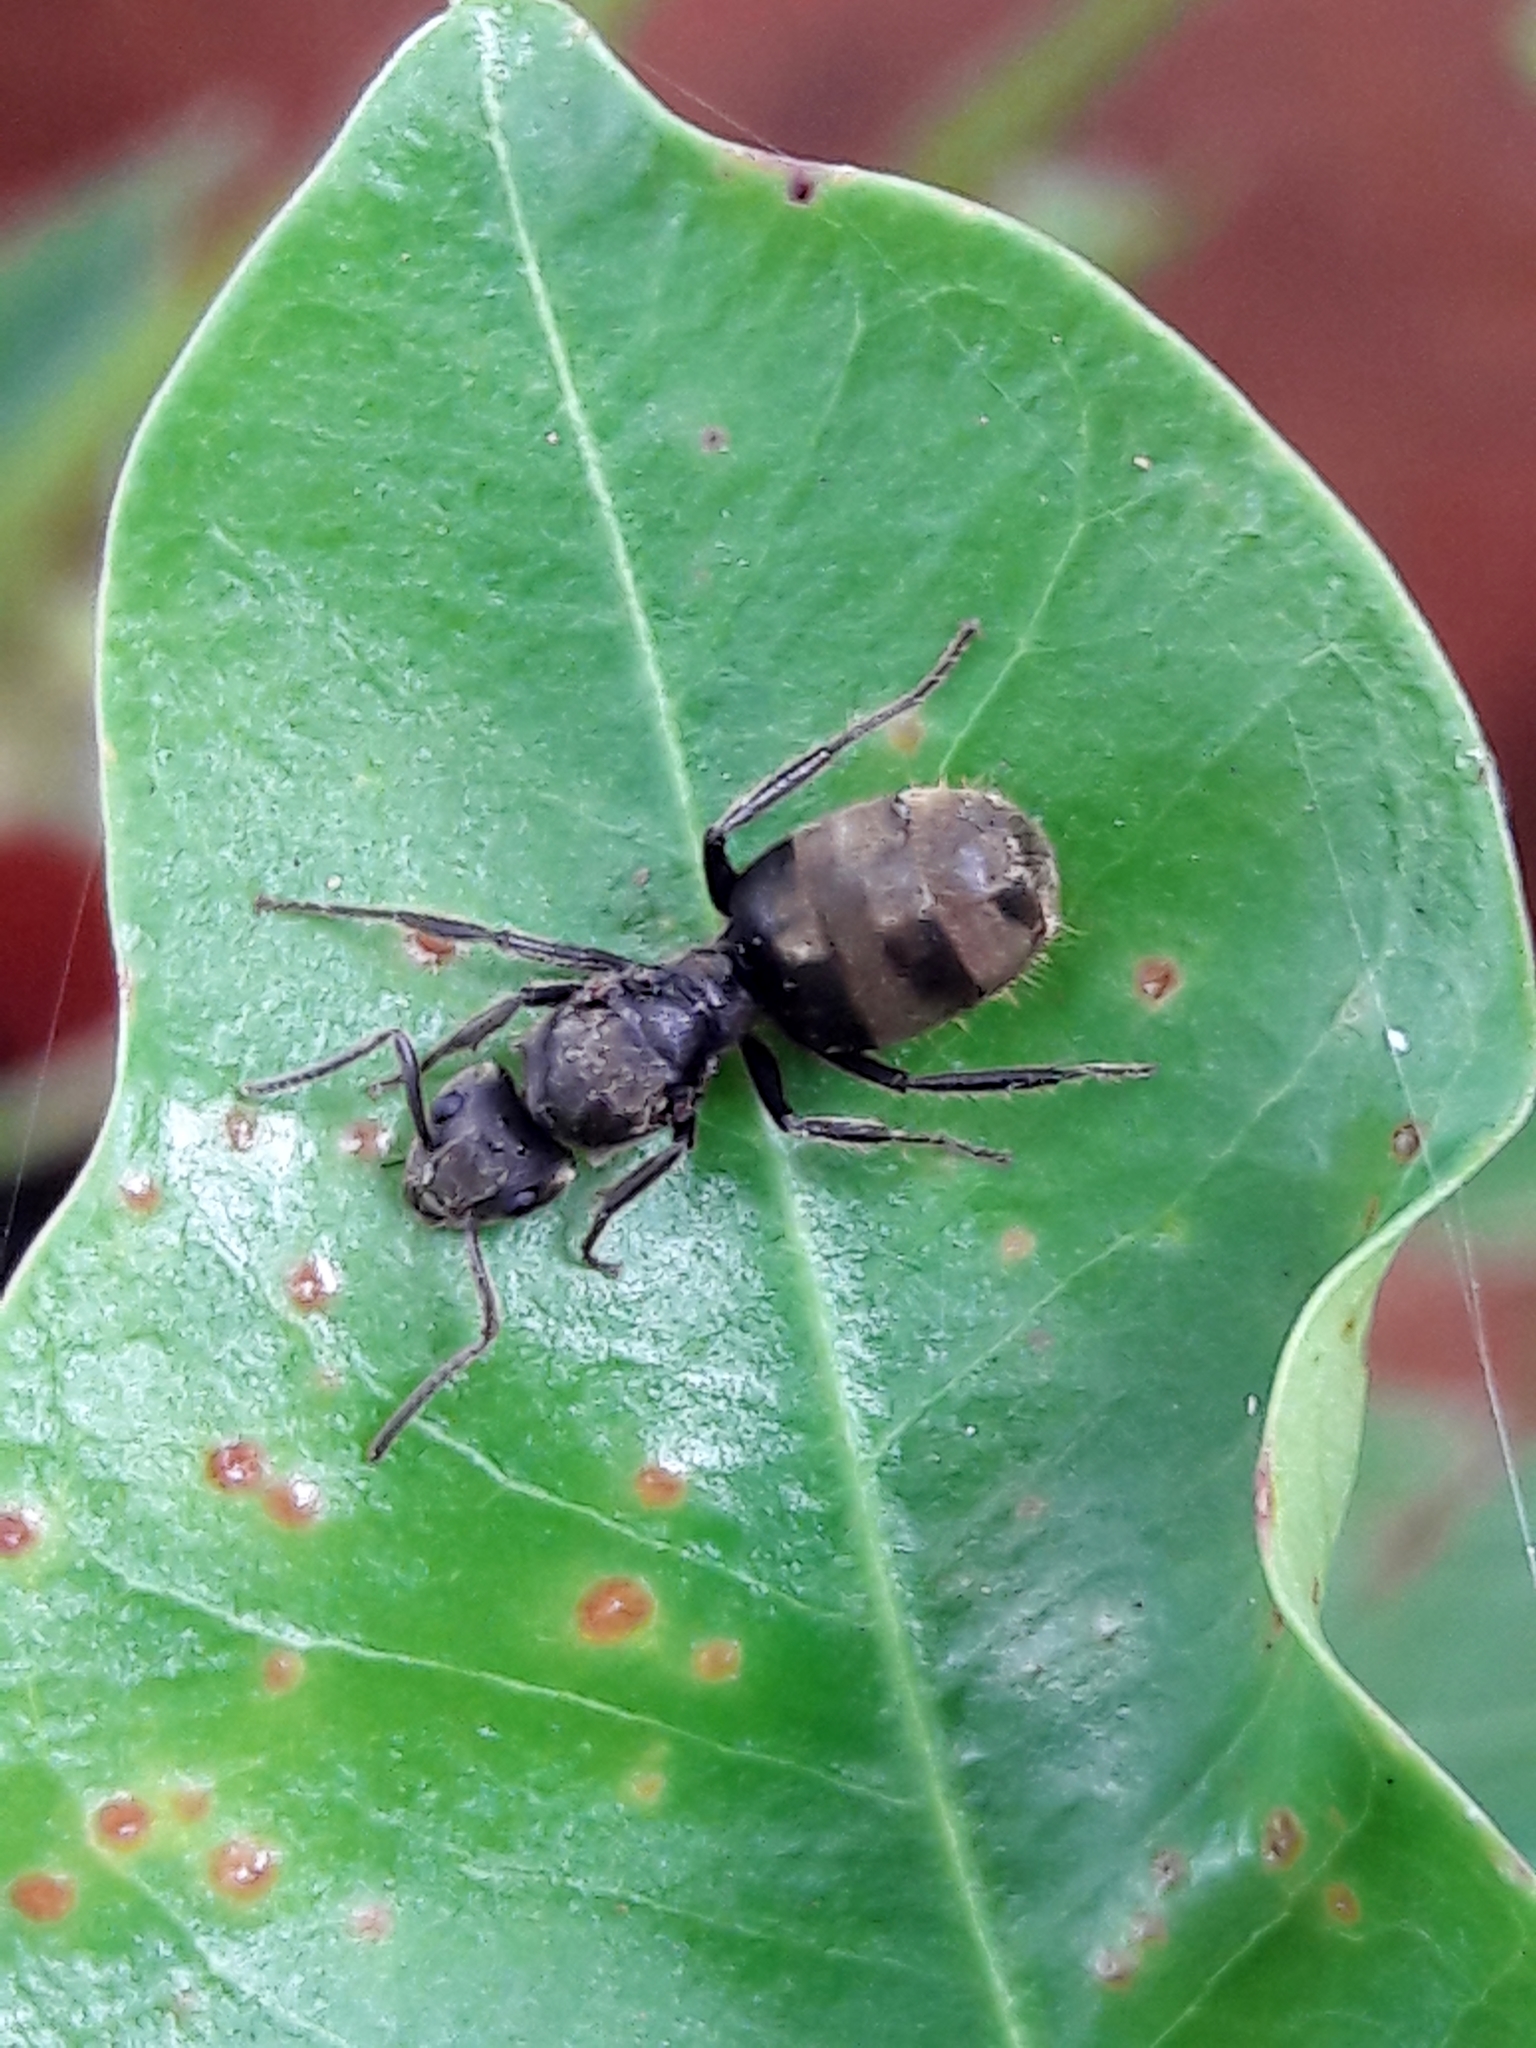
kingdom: Animalia
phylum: Arthropoda
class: Insecta
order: Hymenoptera
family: Formicidae
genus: Dolichoderus
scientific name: Dolichoderus bispinosus
